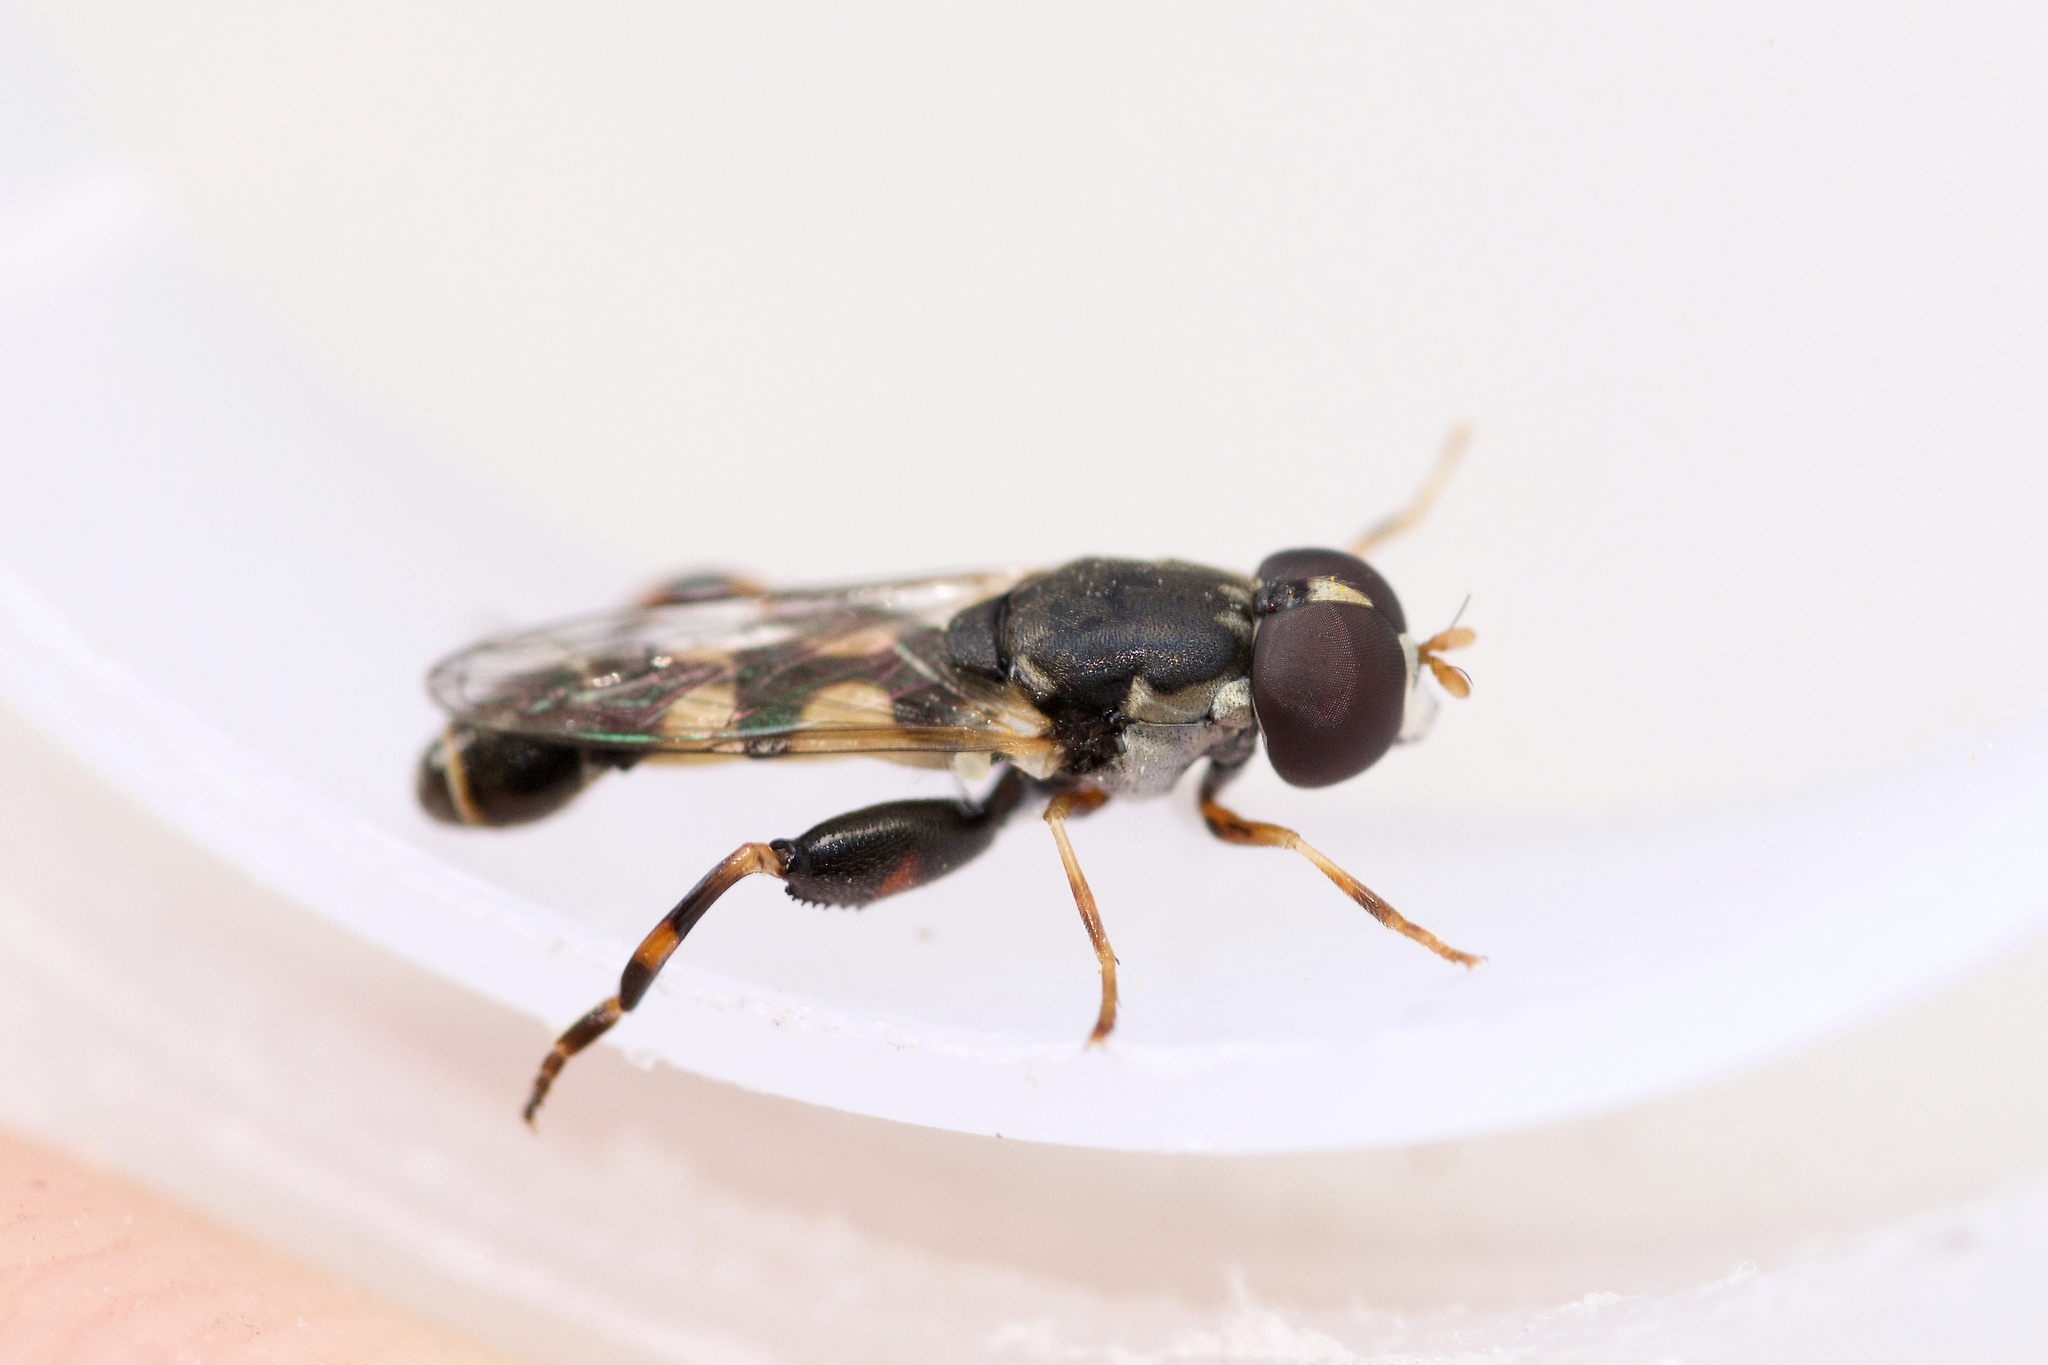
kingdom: Animalia
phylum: Arthropoda
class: Insecta
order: Diptera
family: Syrphidae
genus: Syritta
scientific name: Syritta pipiens
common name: Hover fly
